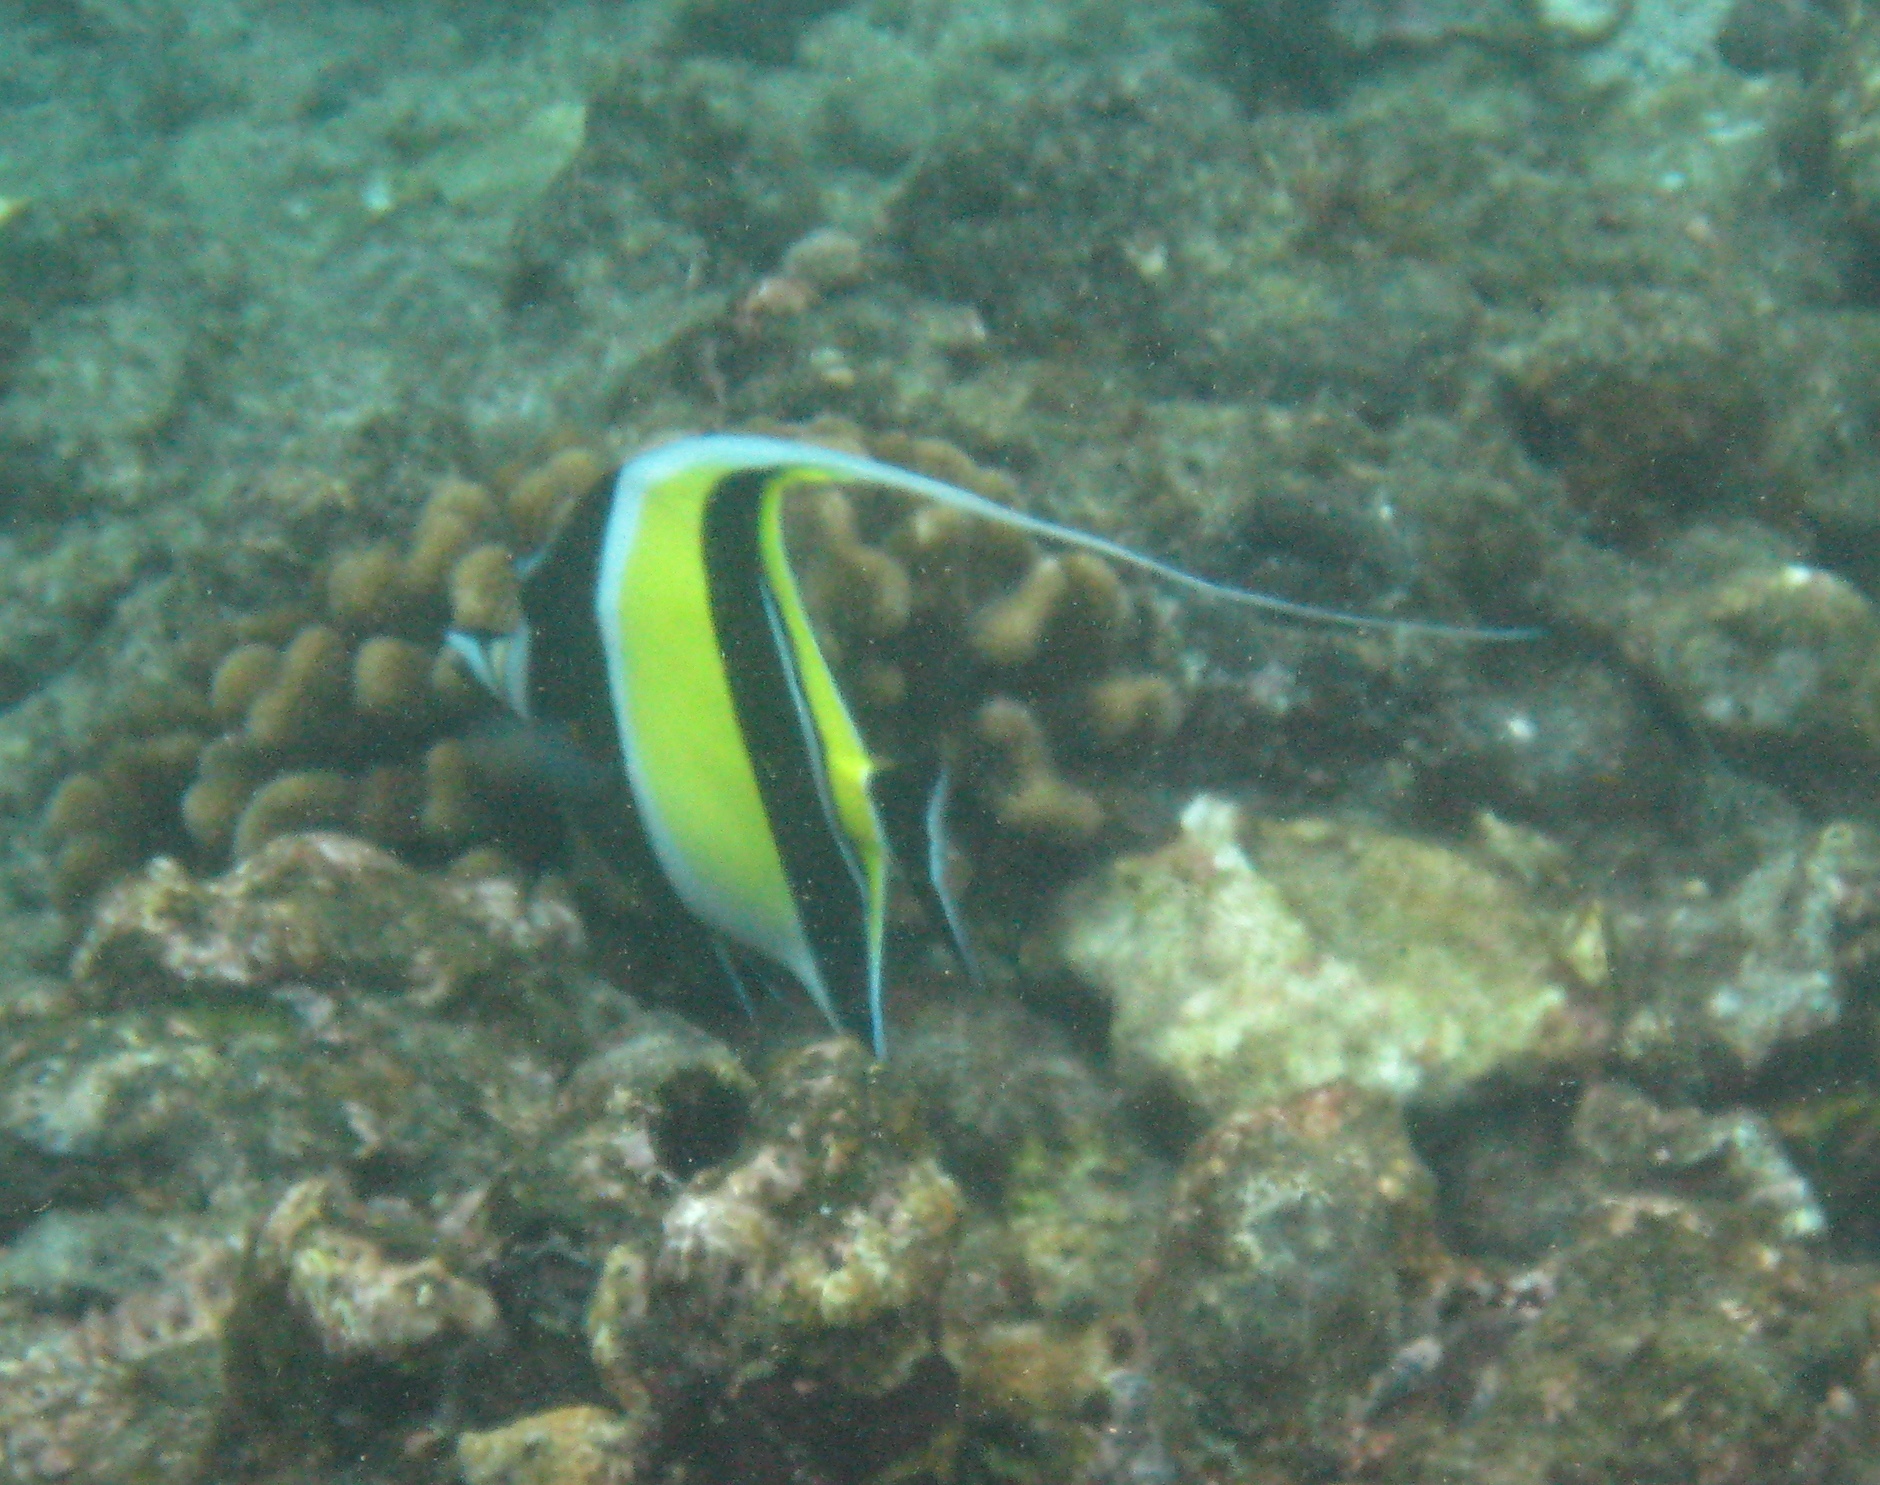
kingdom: Animalia
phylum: Chordata
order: Perciformes
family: Zanclidae
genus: Zanclus
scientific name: Zanclus cornutus
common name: Moorish idol
